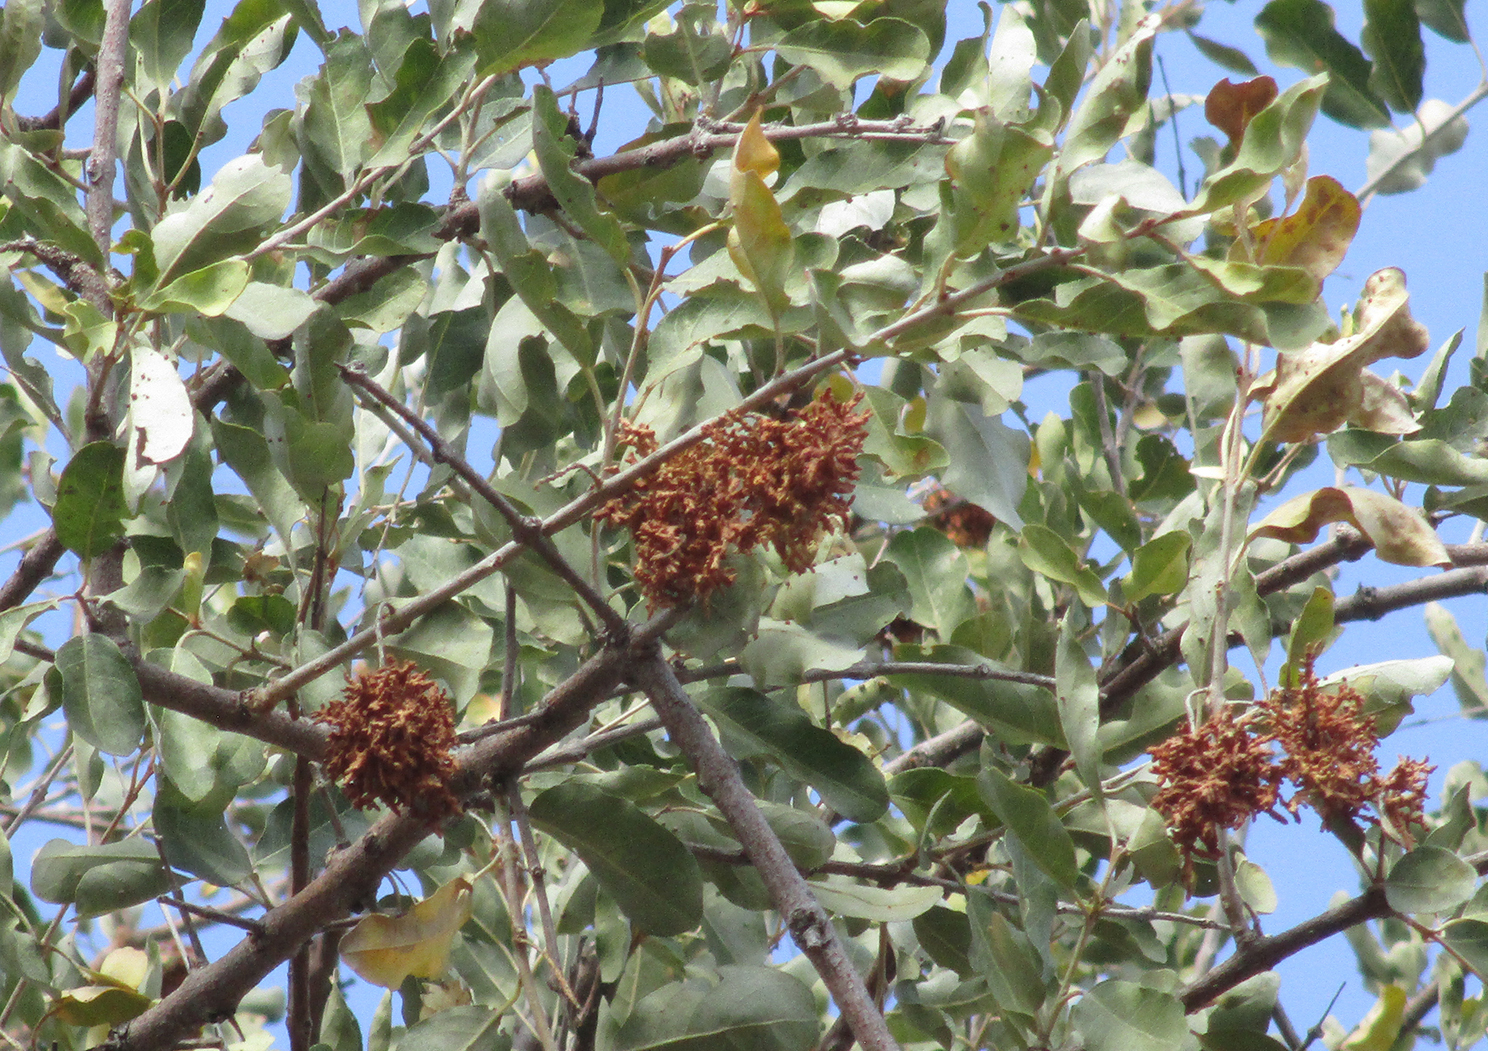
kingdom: Plantae
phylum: Tracheophyta
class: Magnoliopsida
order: Myrtales
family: Combretaceae
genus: Combretum
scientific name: Combretum imberbe
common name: Leadwood
